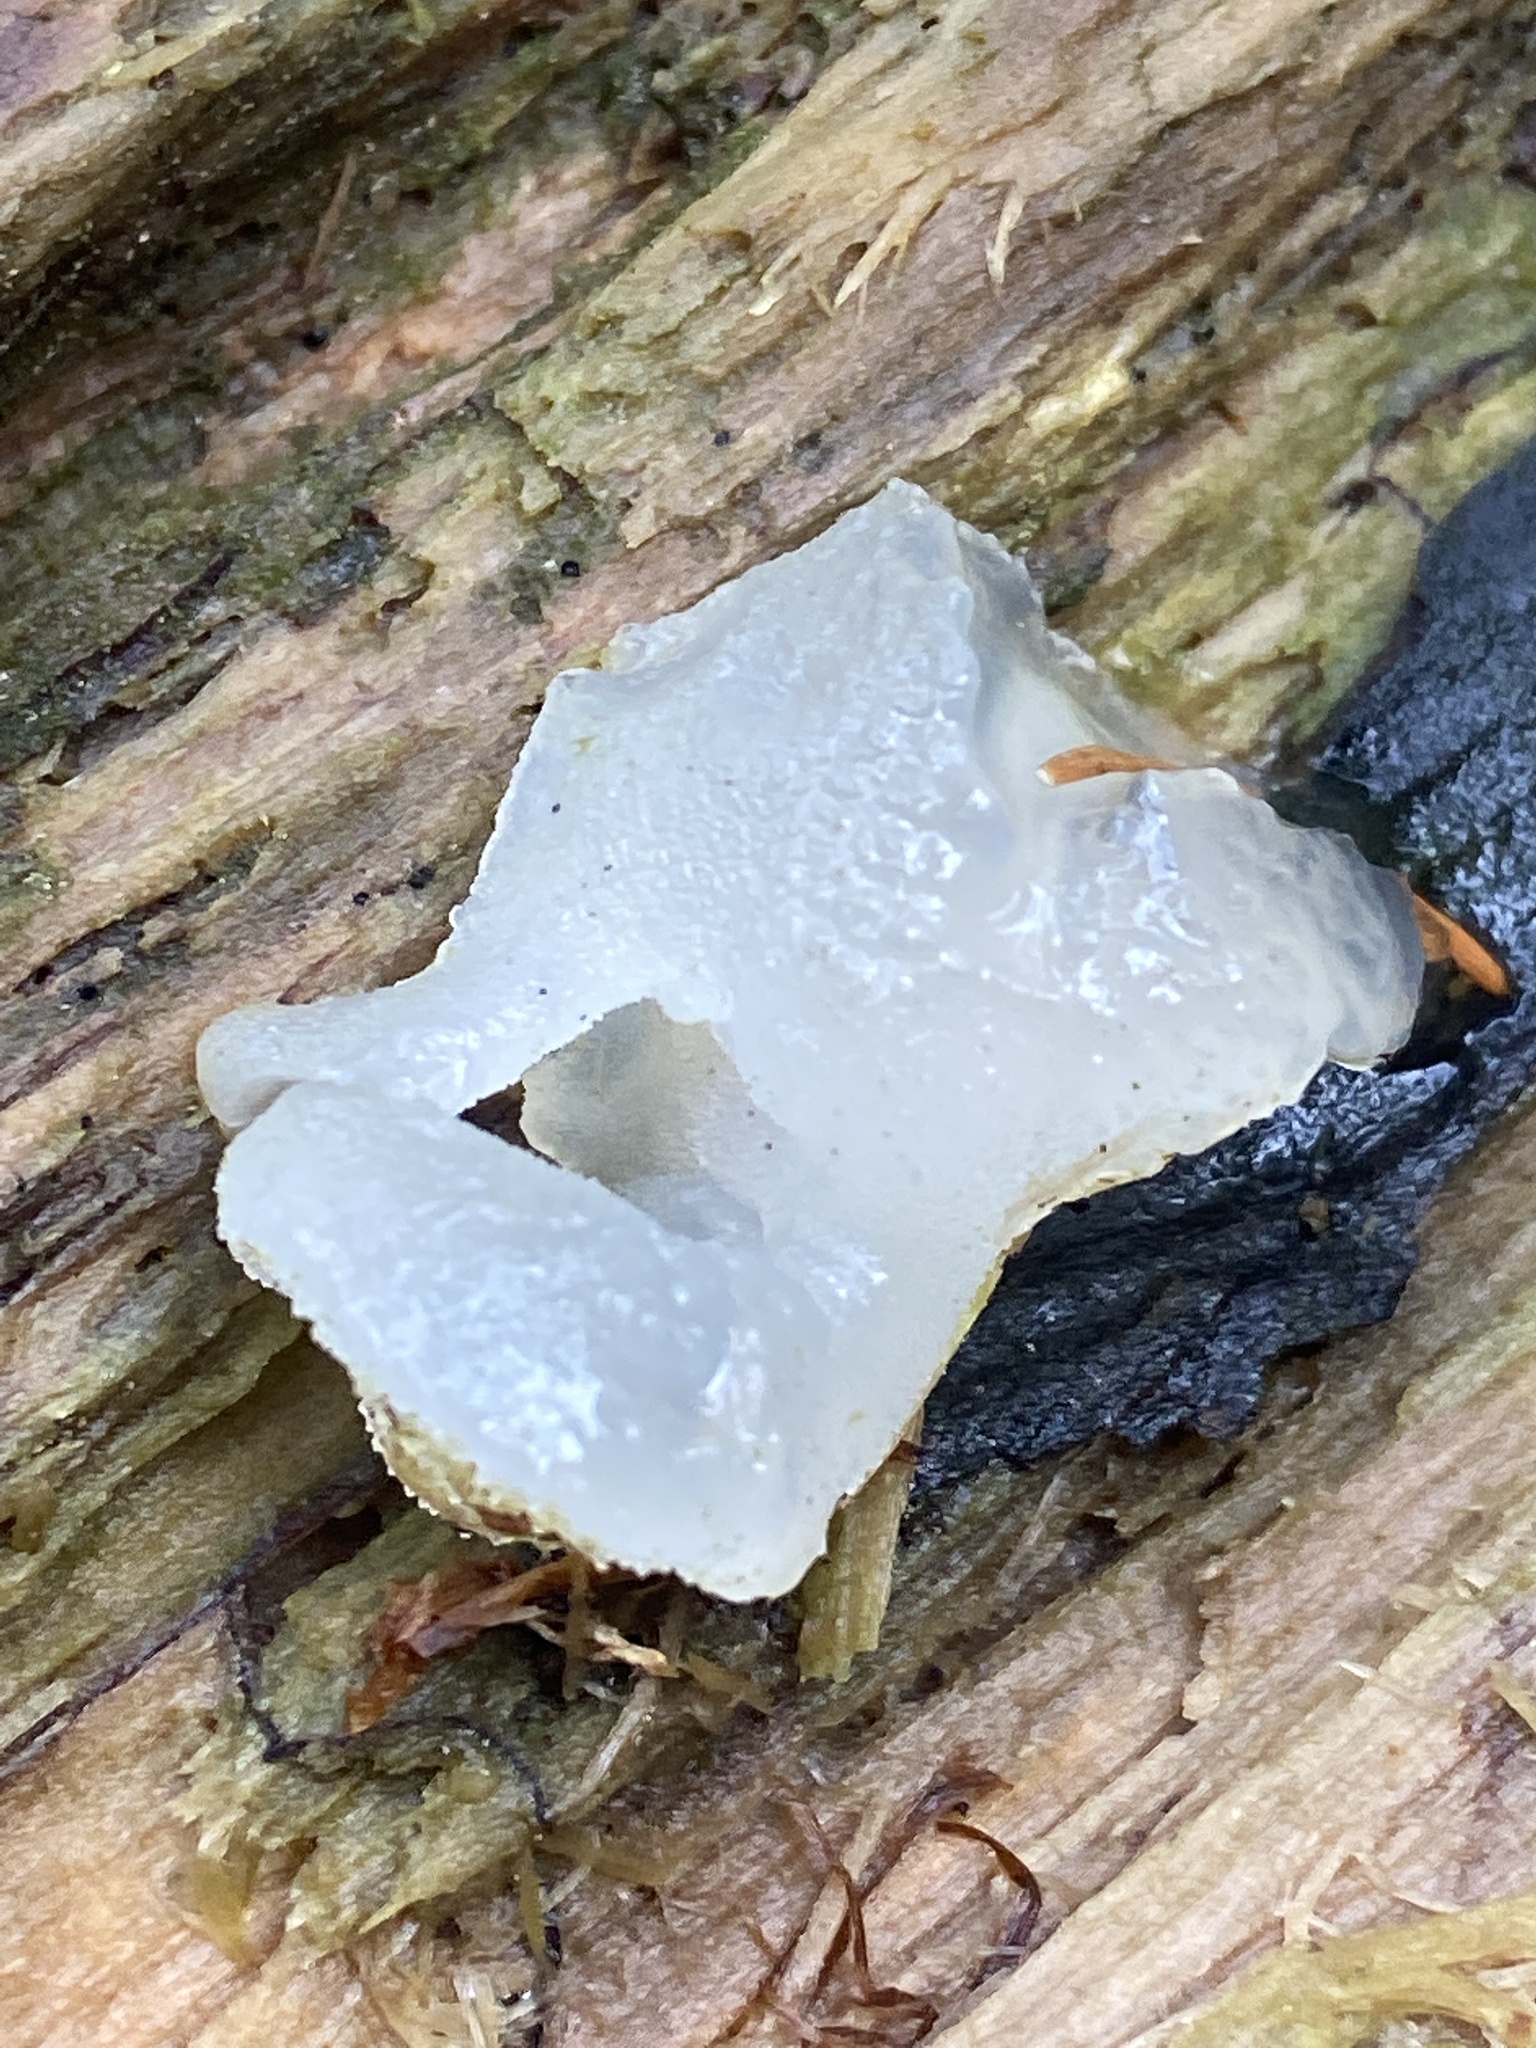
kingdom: Fungi
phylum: Basidiomycota
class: Agaricomycetes
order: Auriculariales
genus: Pseudohydnum
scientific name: Pseudohydnum gelatinosum
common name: Jelly tongue
